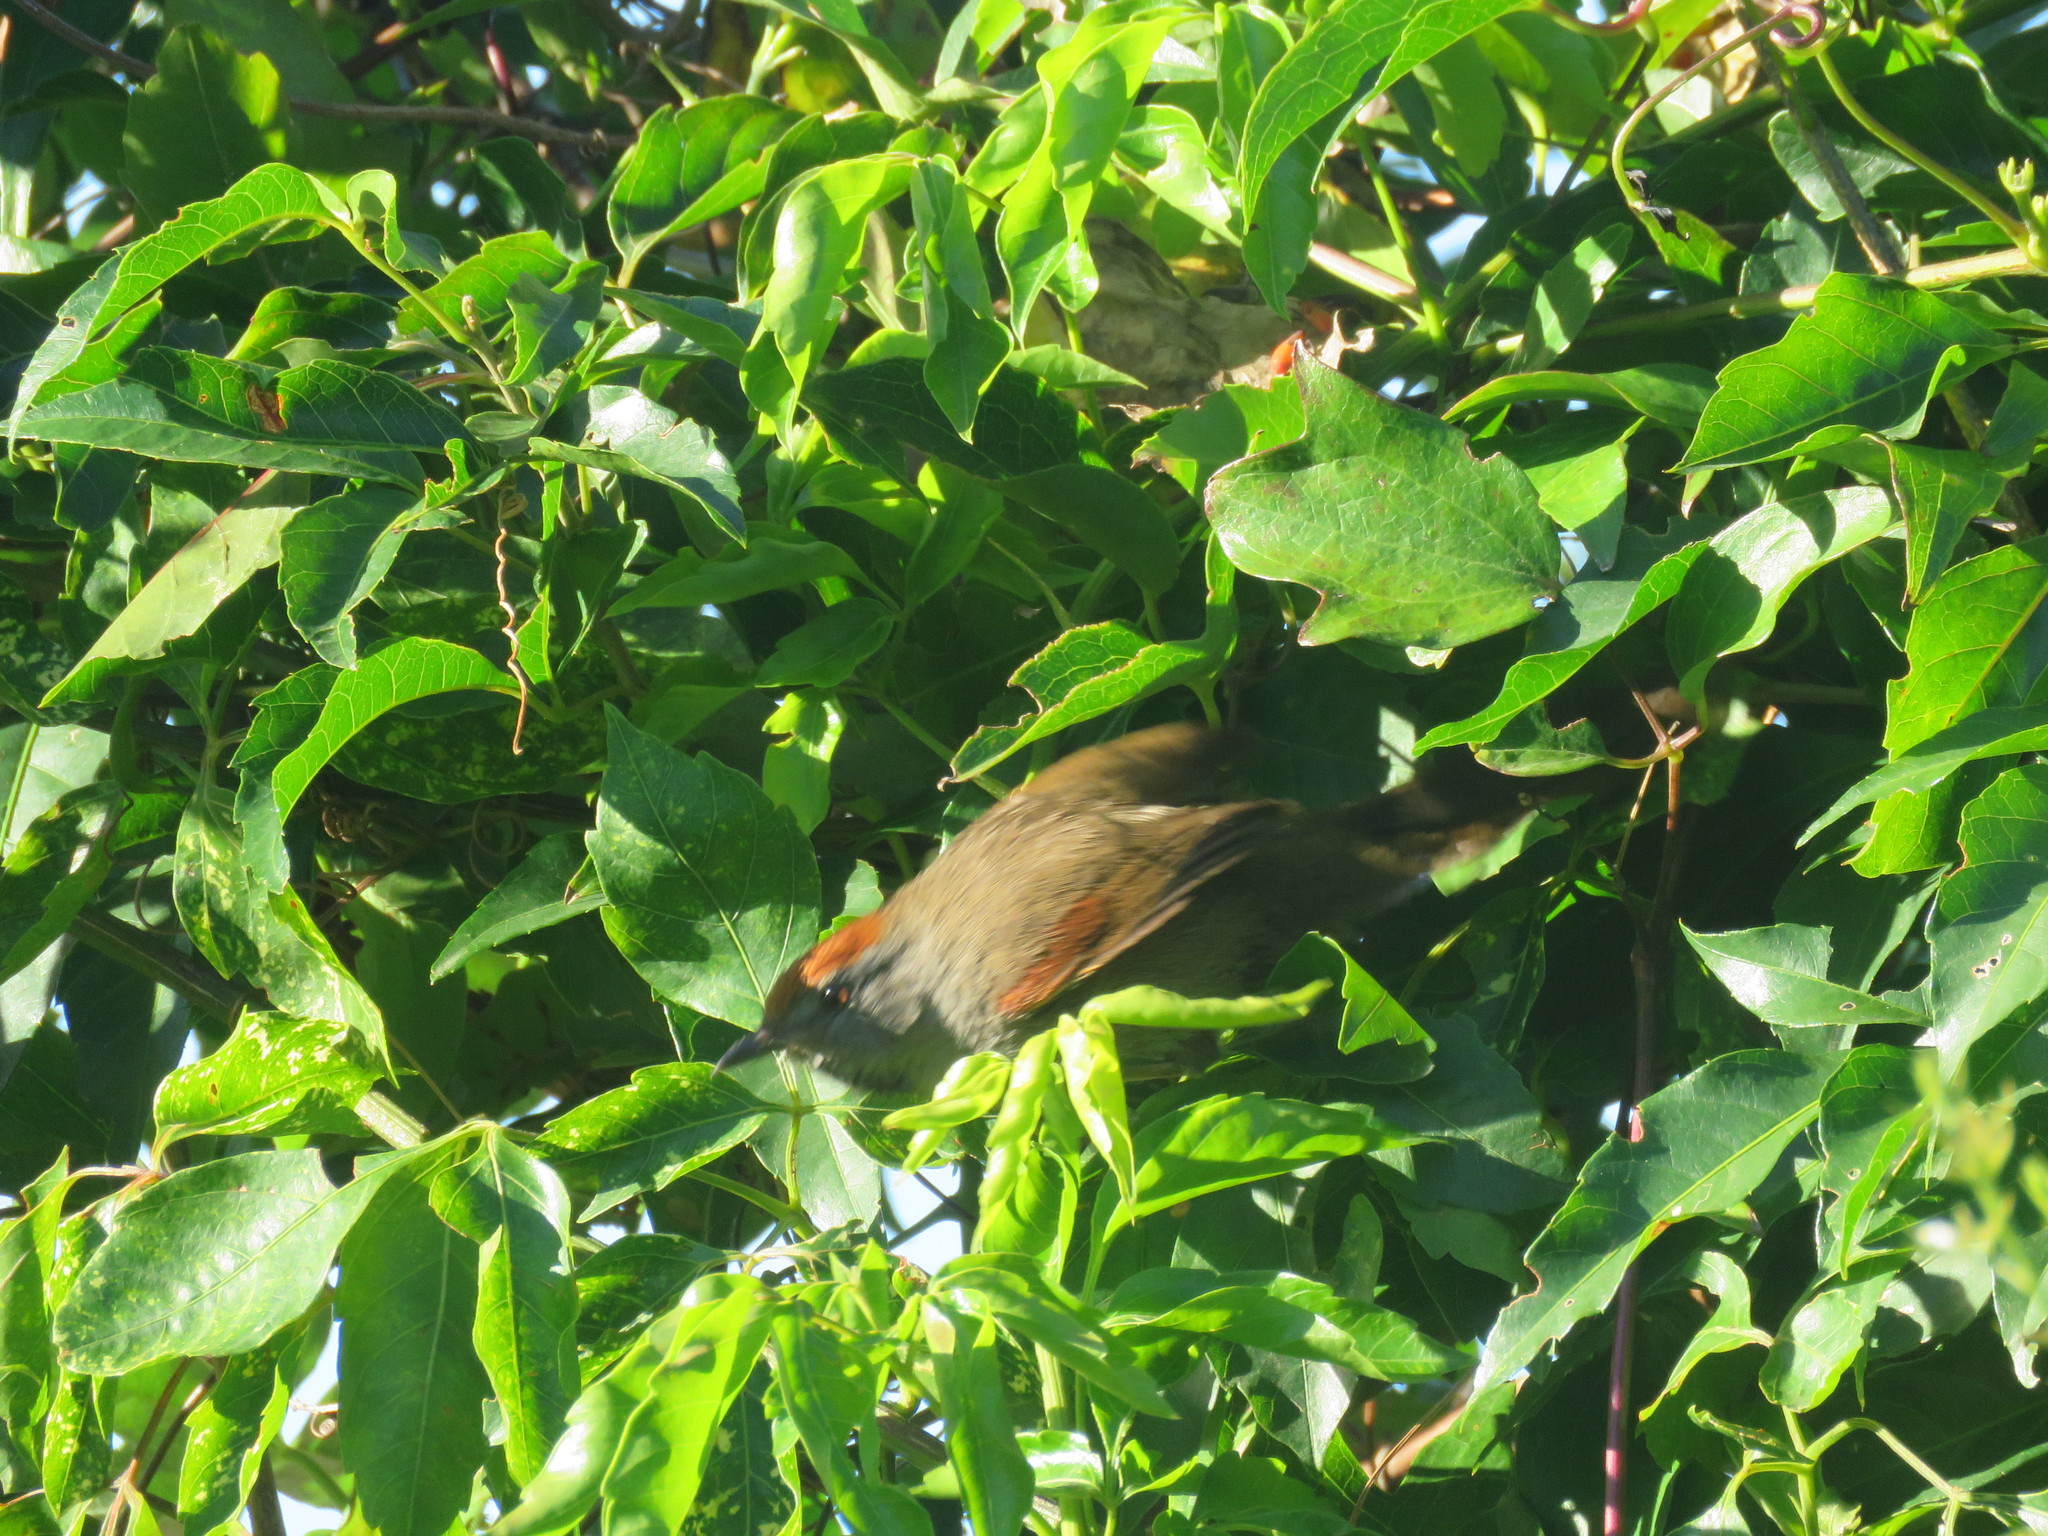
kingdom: Animalia
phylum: Chordata
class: Aves
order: Passeriformes
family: Furnariidae
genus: Synallaxis
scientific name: Synallaxis spixi
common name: Spix's spinetail
